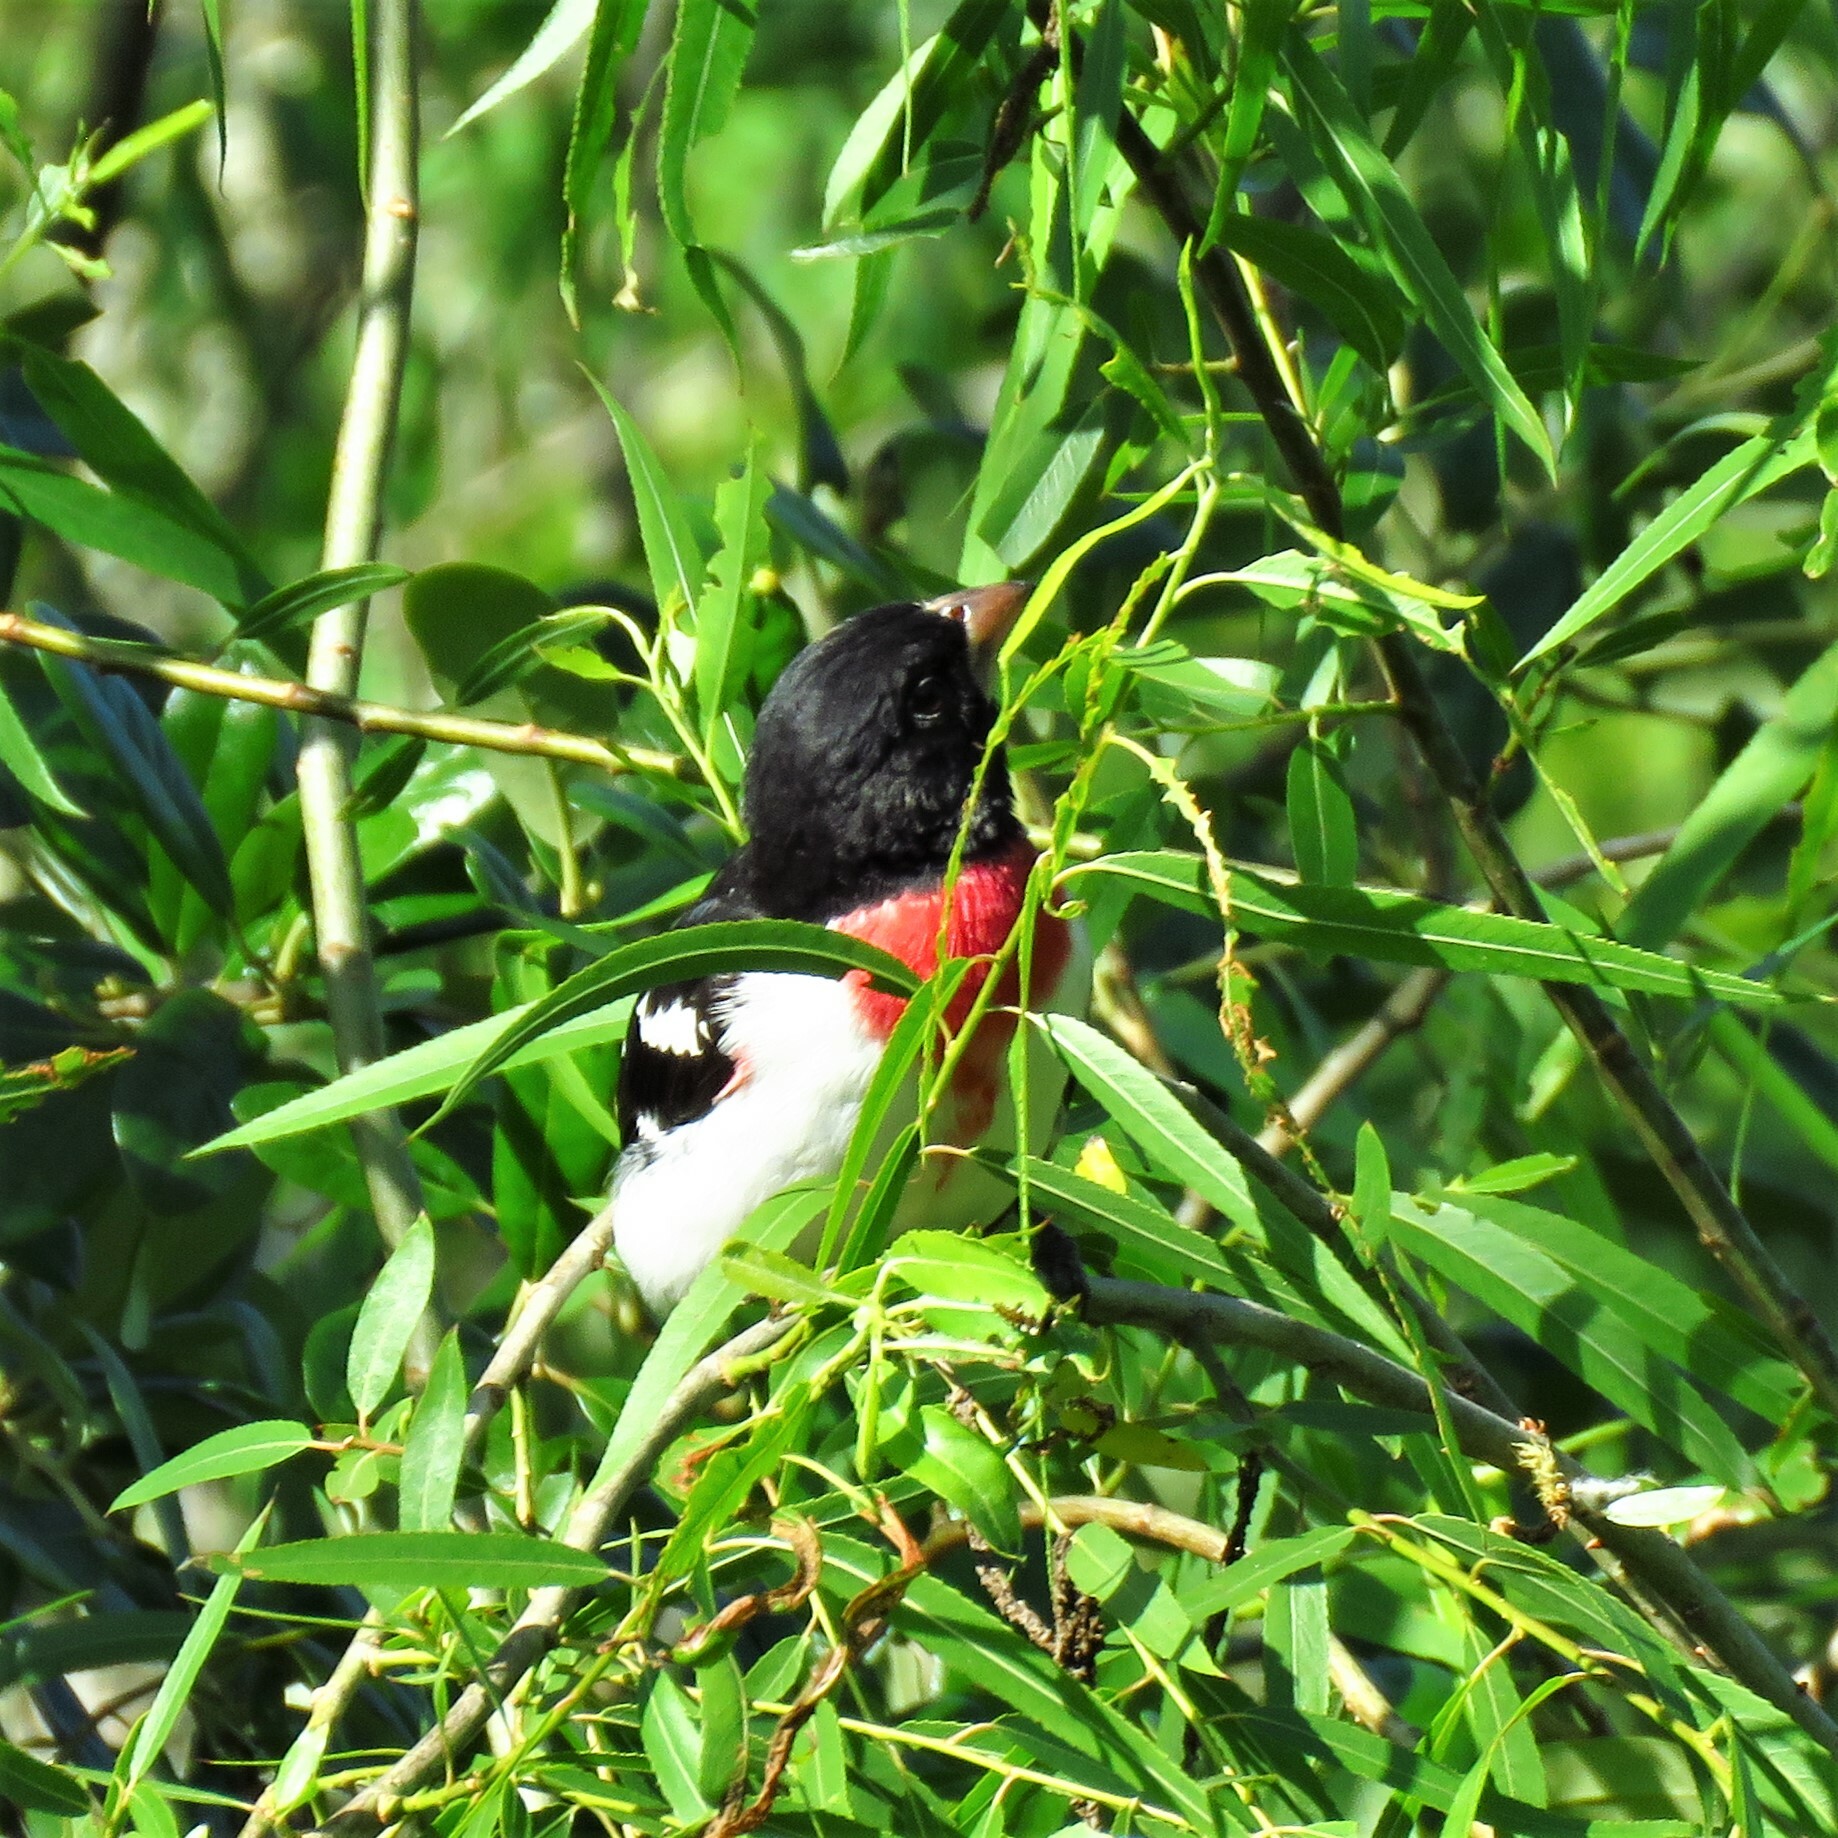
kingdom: Animalia
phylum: Chordata
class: Aves
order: Passeriformes
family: Cardinalidae
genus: Pheucticus
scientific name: Pheucticus ludovicianus
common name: Rose-breasted grosbeak
